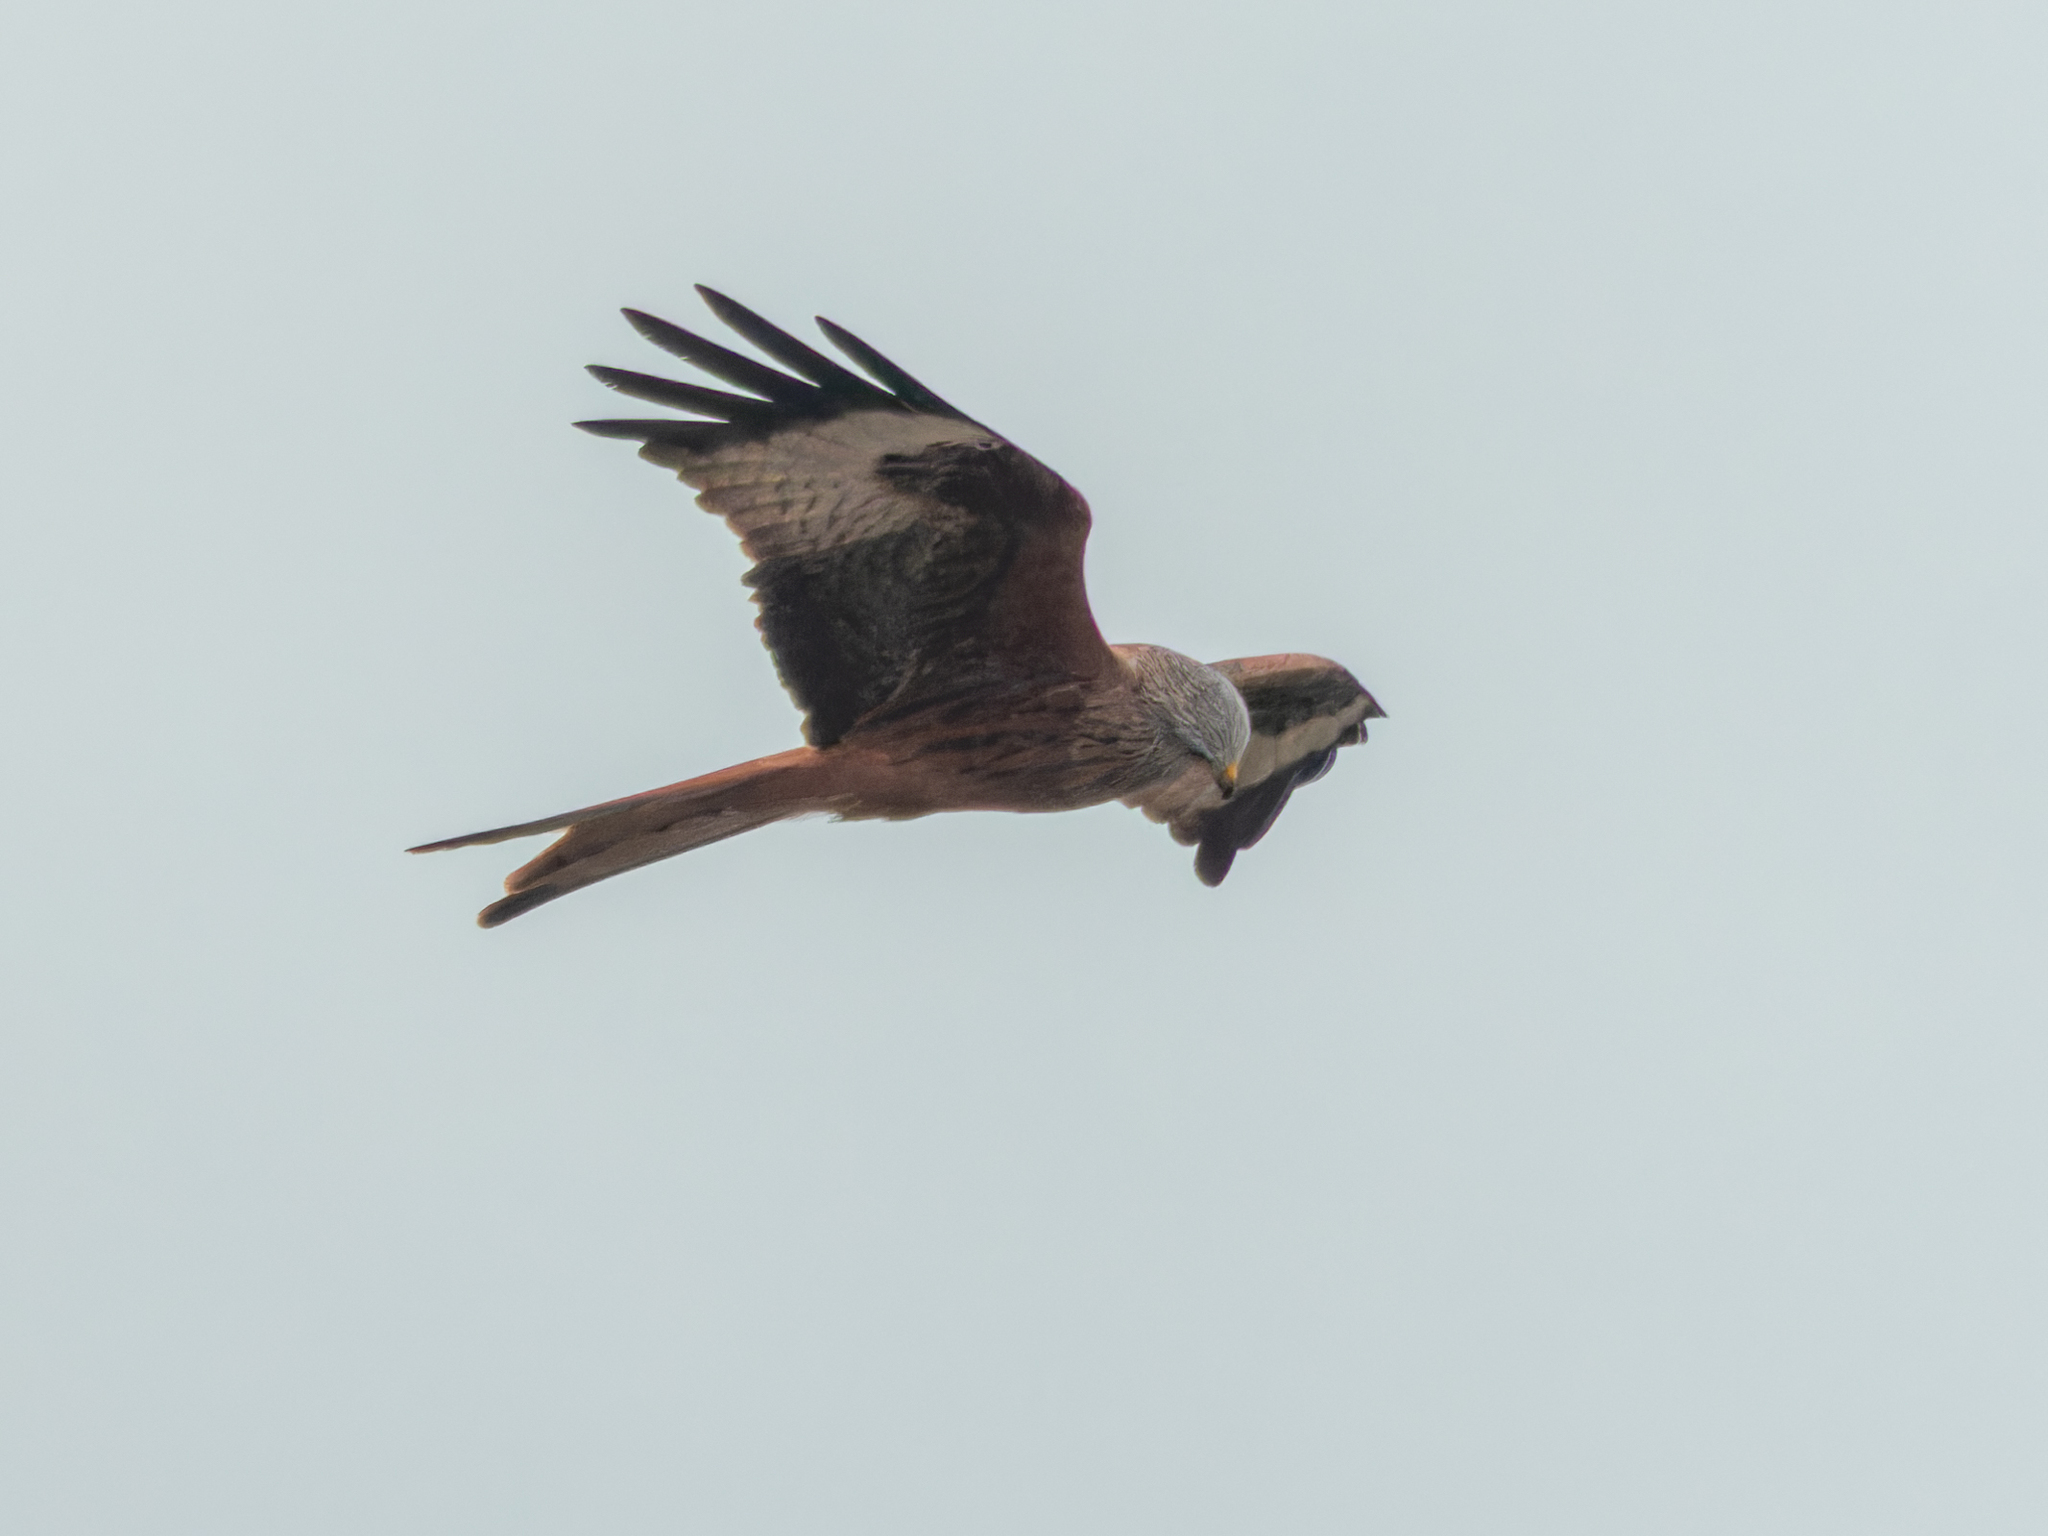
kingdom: Animalia
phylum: Chordata
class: Aves
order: Accipitriformes
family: Accipitridae
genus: Milvus
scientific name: Milvus milvus
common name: Red kite
